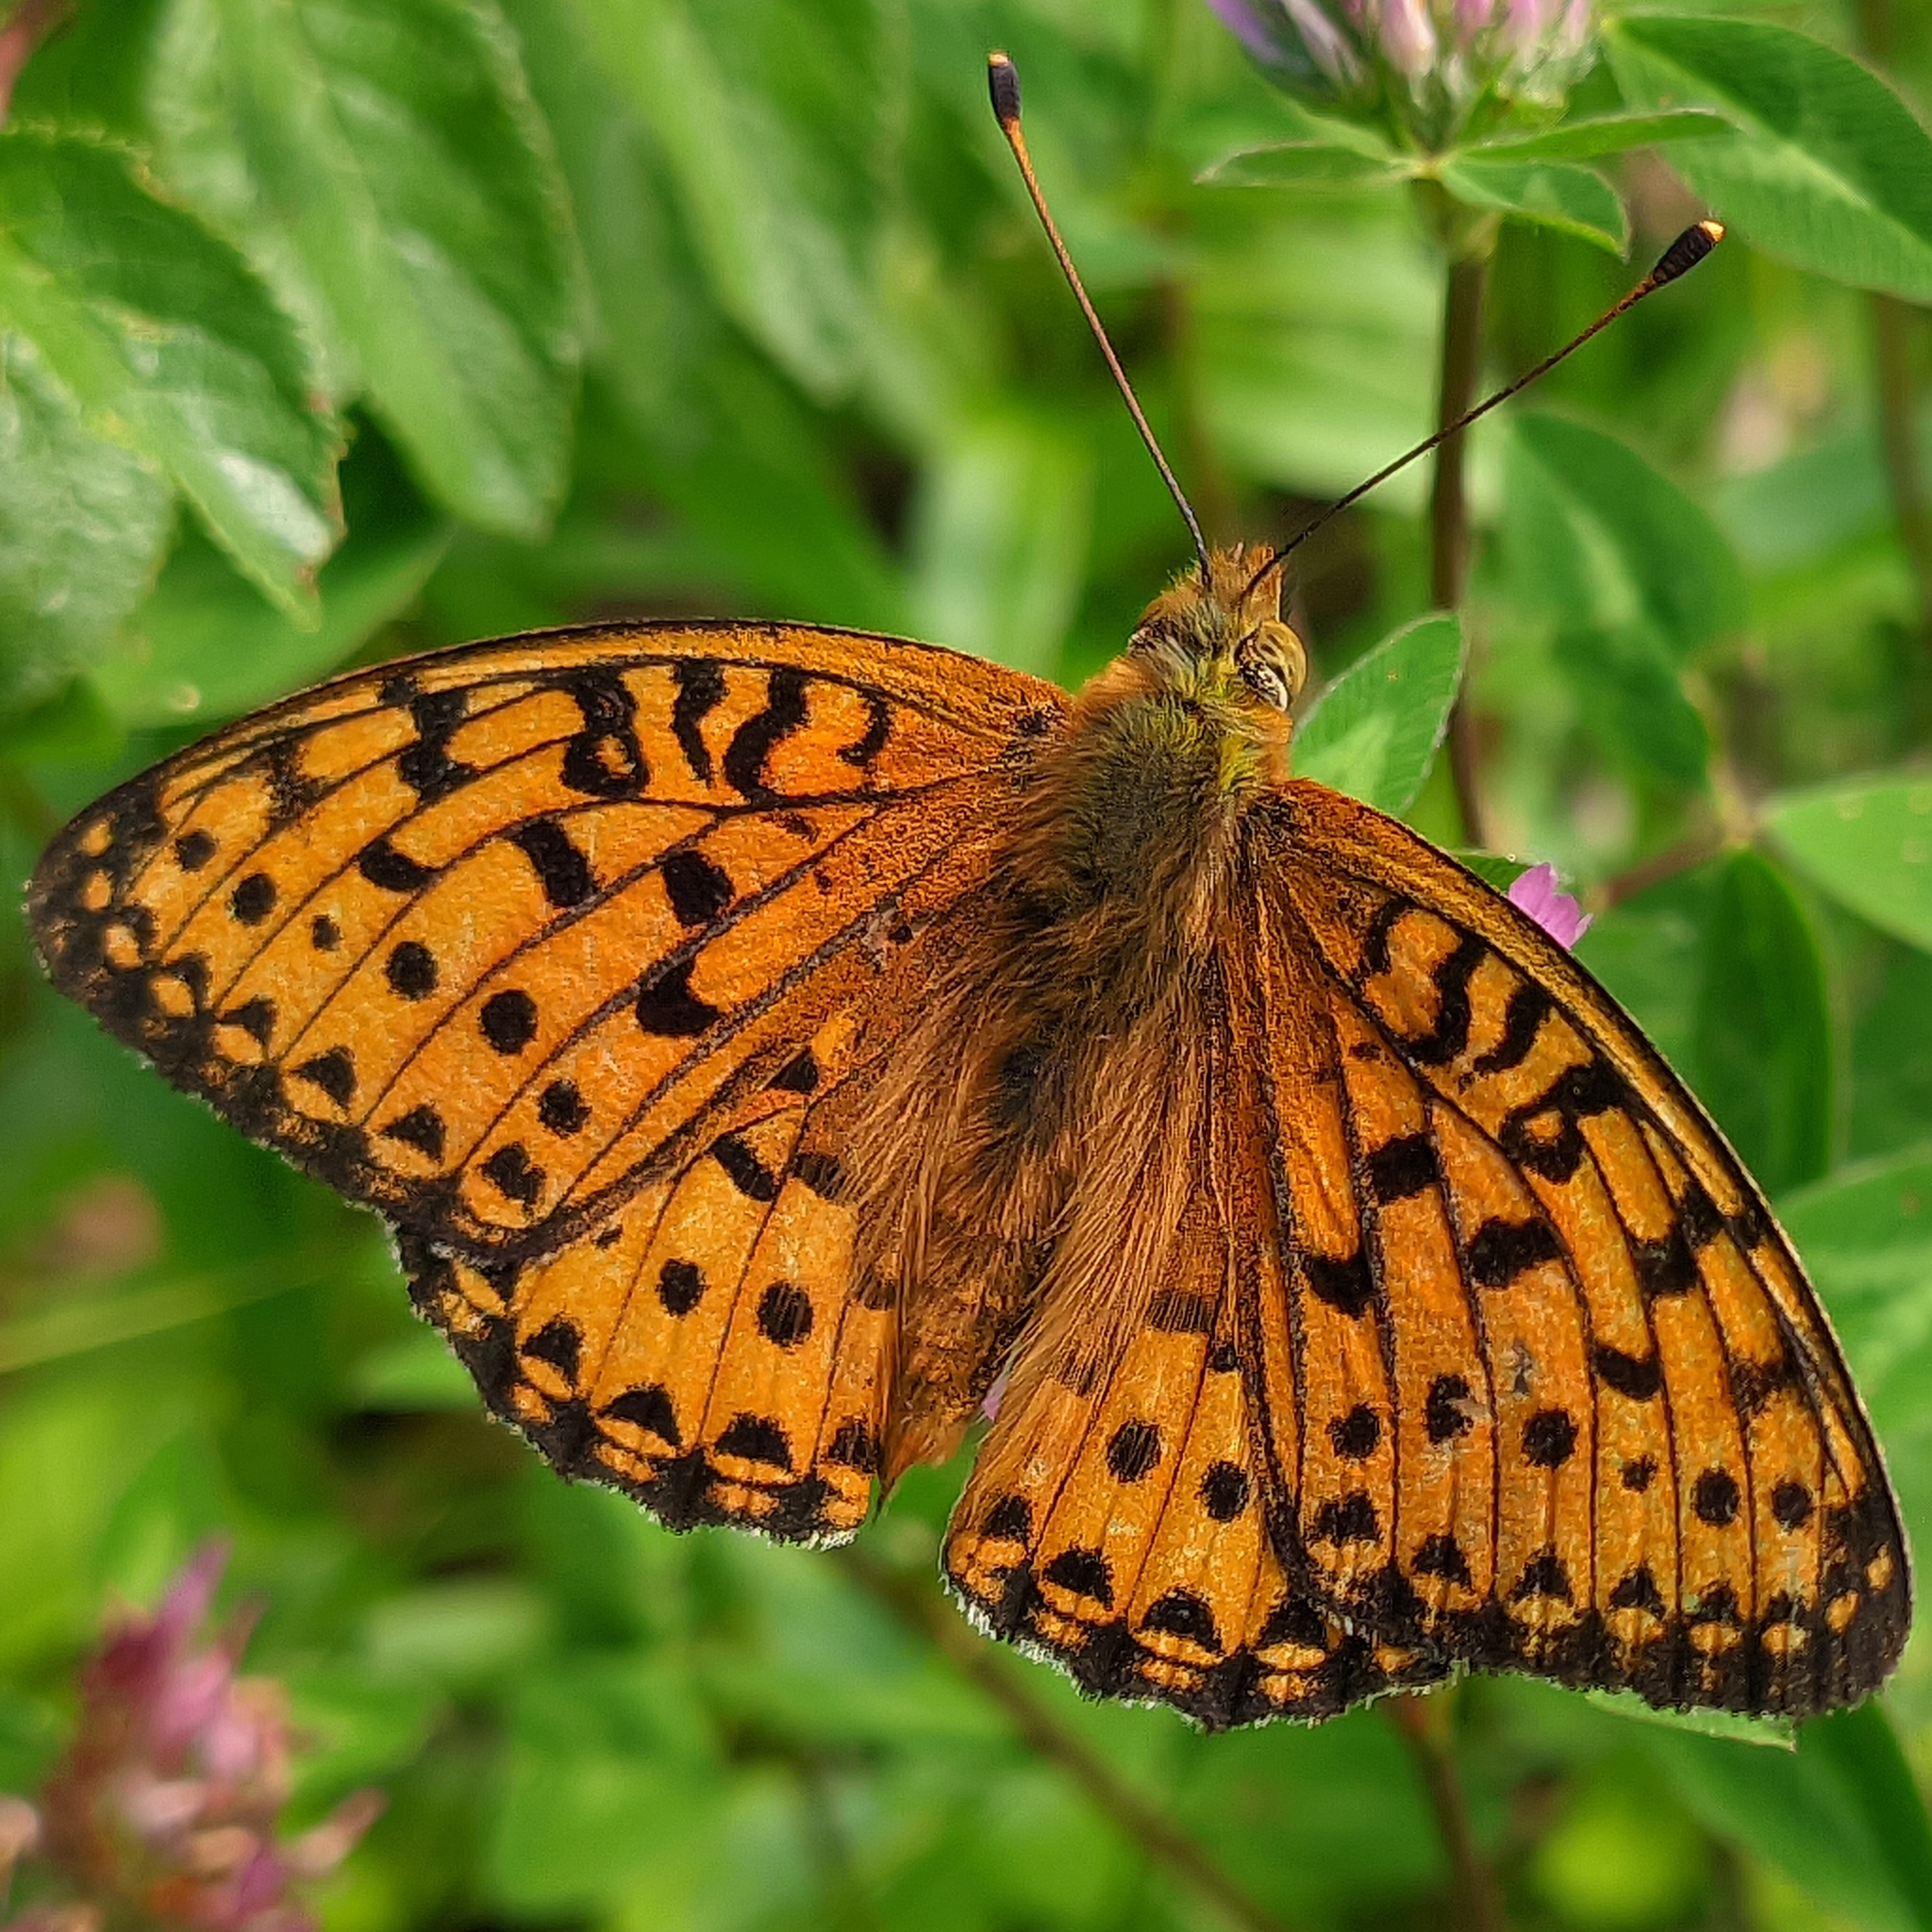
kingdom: Animalia
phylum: Arthropoda
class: Insecta
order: Lepidoptera
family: Nymphalidae
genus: Speyeria
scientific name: Speyeria aglaja
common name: Dark green fritillary
